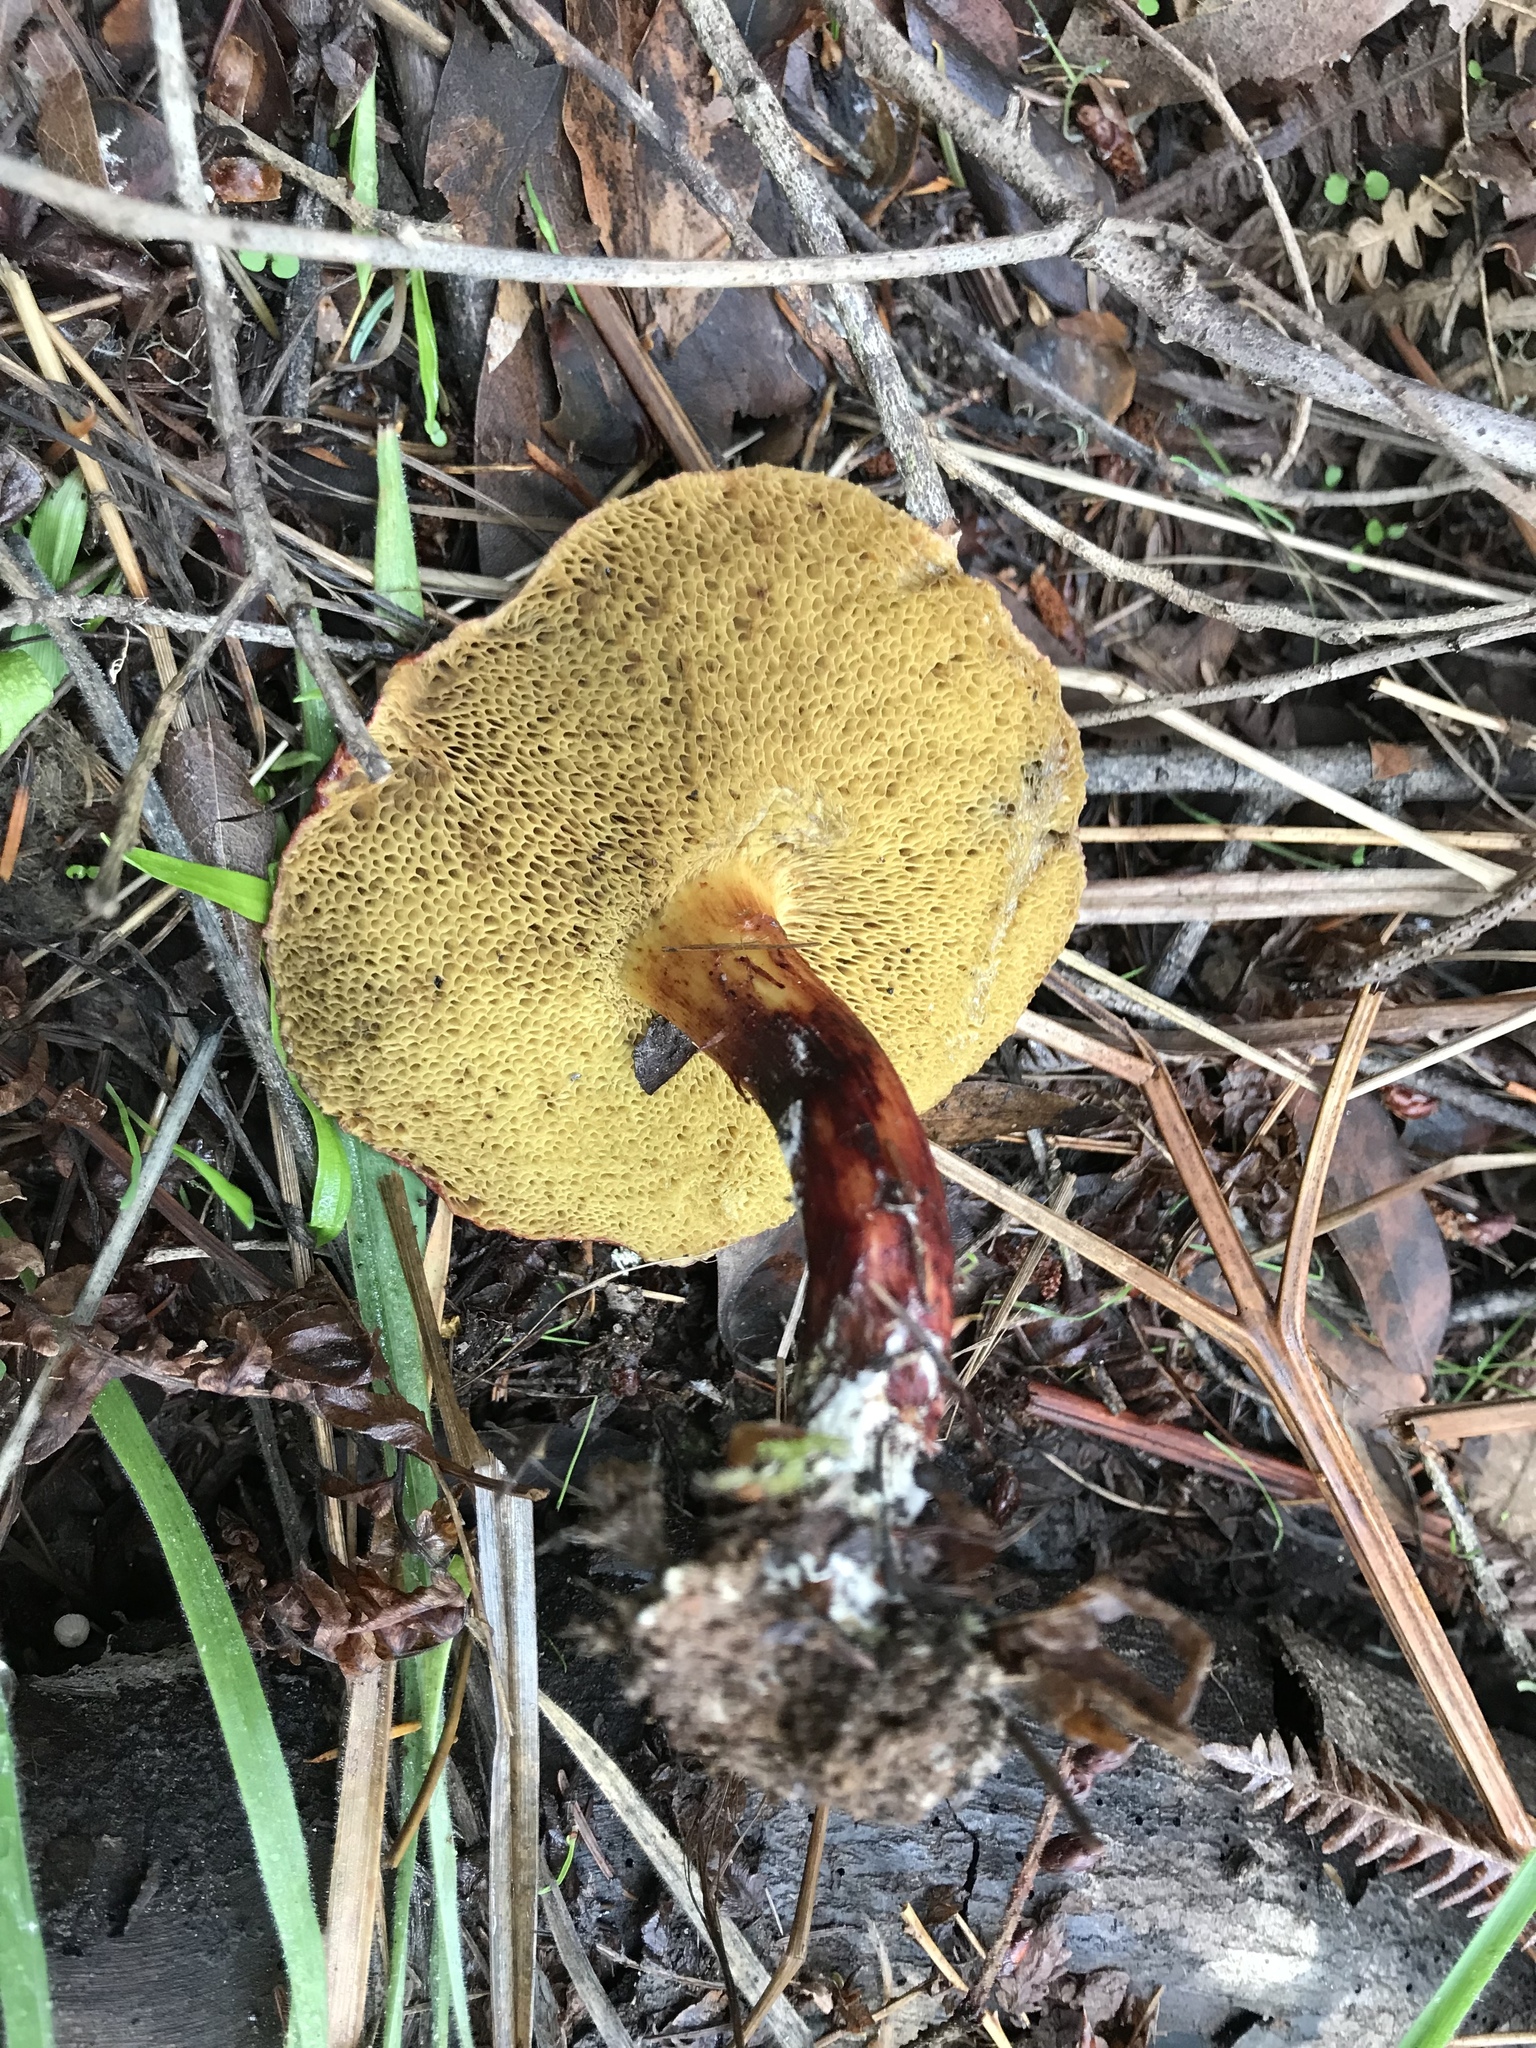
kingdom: Fungi
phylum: Basidiomycota
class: Agaricomycetes
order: Boletales
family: Boletaceae
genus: Xerocomellus
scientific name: Xerocomellus diffractus
